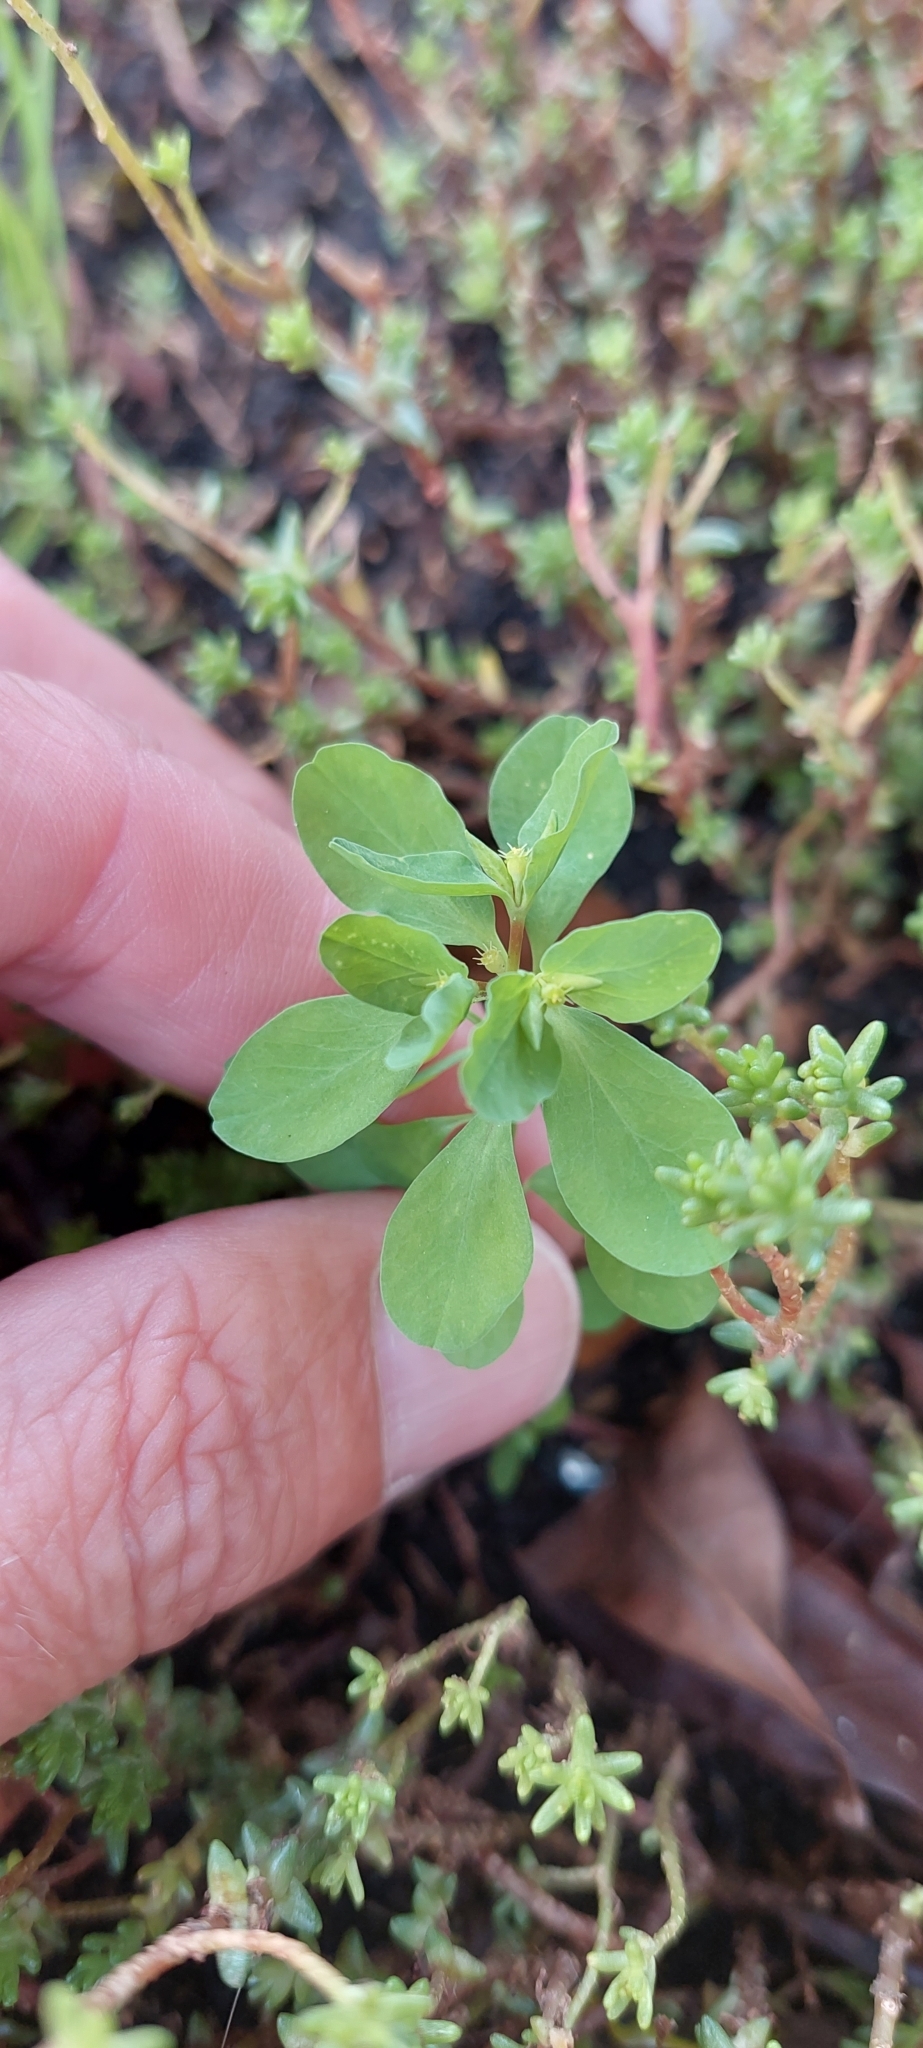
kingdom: Plantae
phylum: Tracheophyta
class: Magnoliopsida
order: Malpighiales
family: Euphorbiaceae
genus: Euphorbia
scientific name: Euphorbia peplus
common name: Petty spurge
